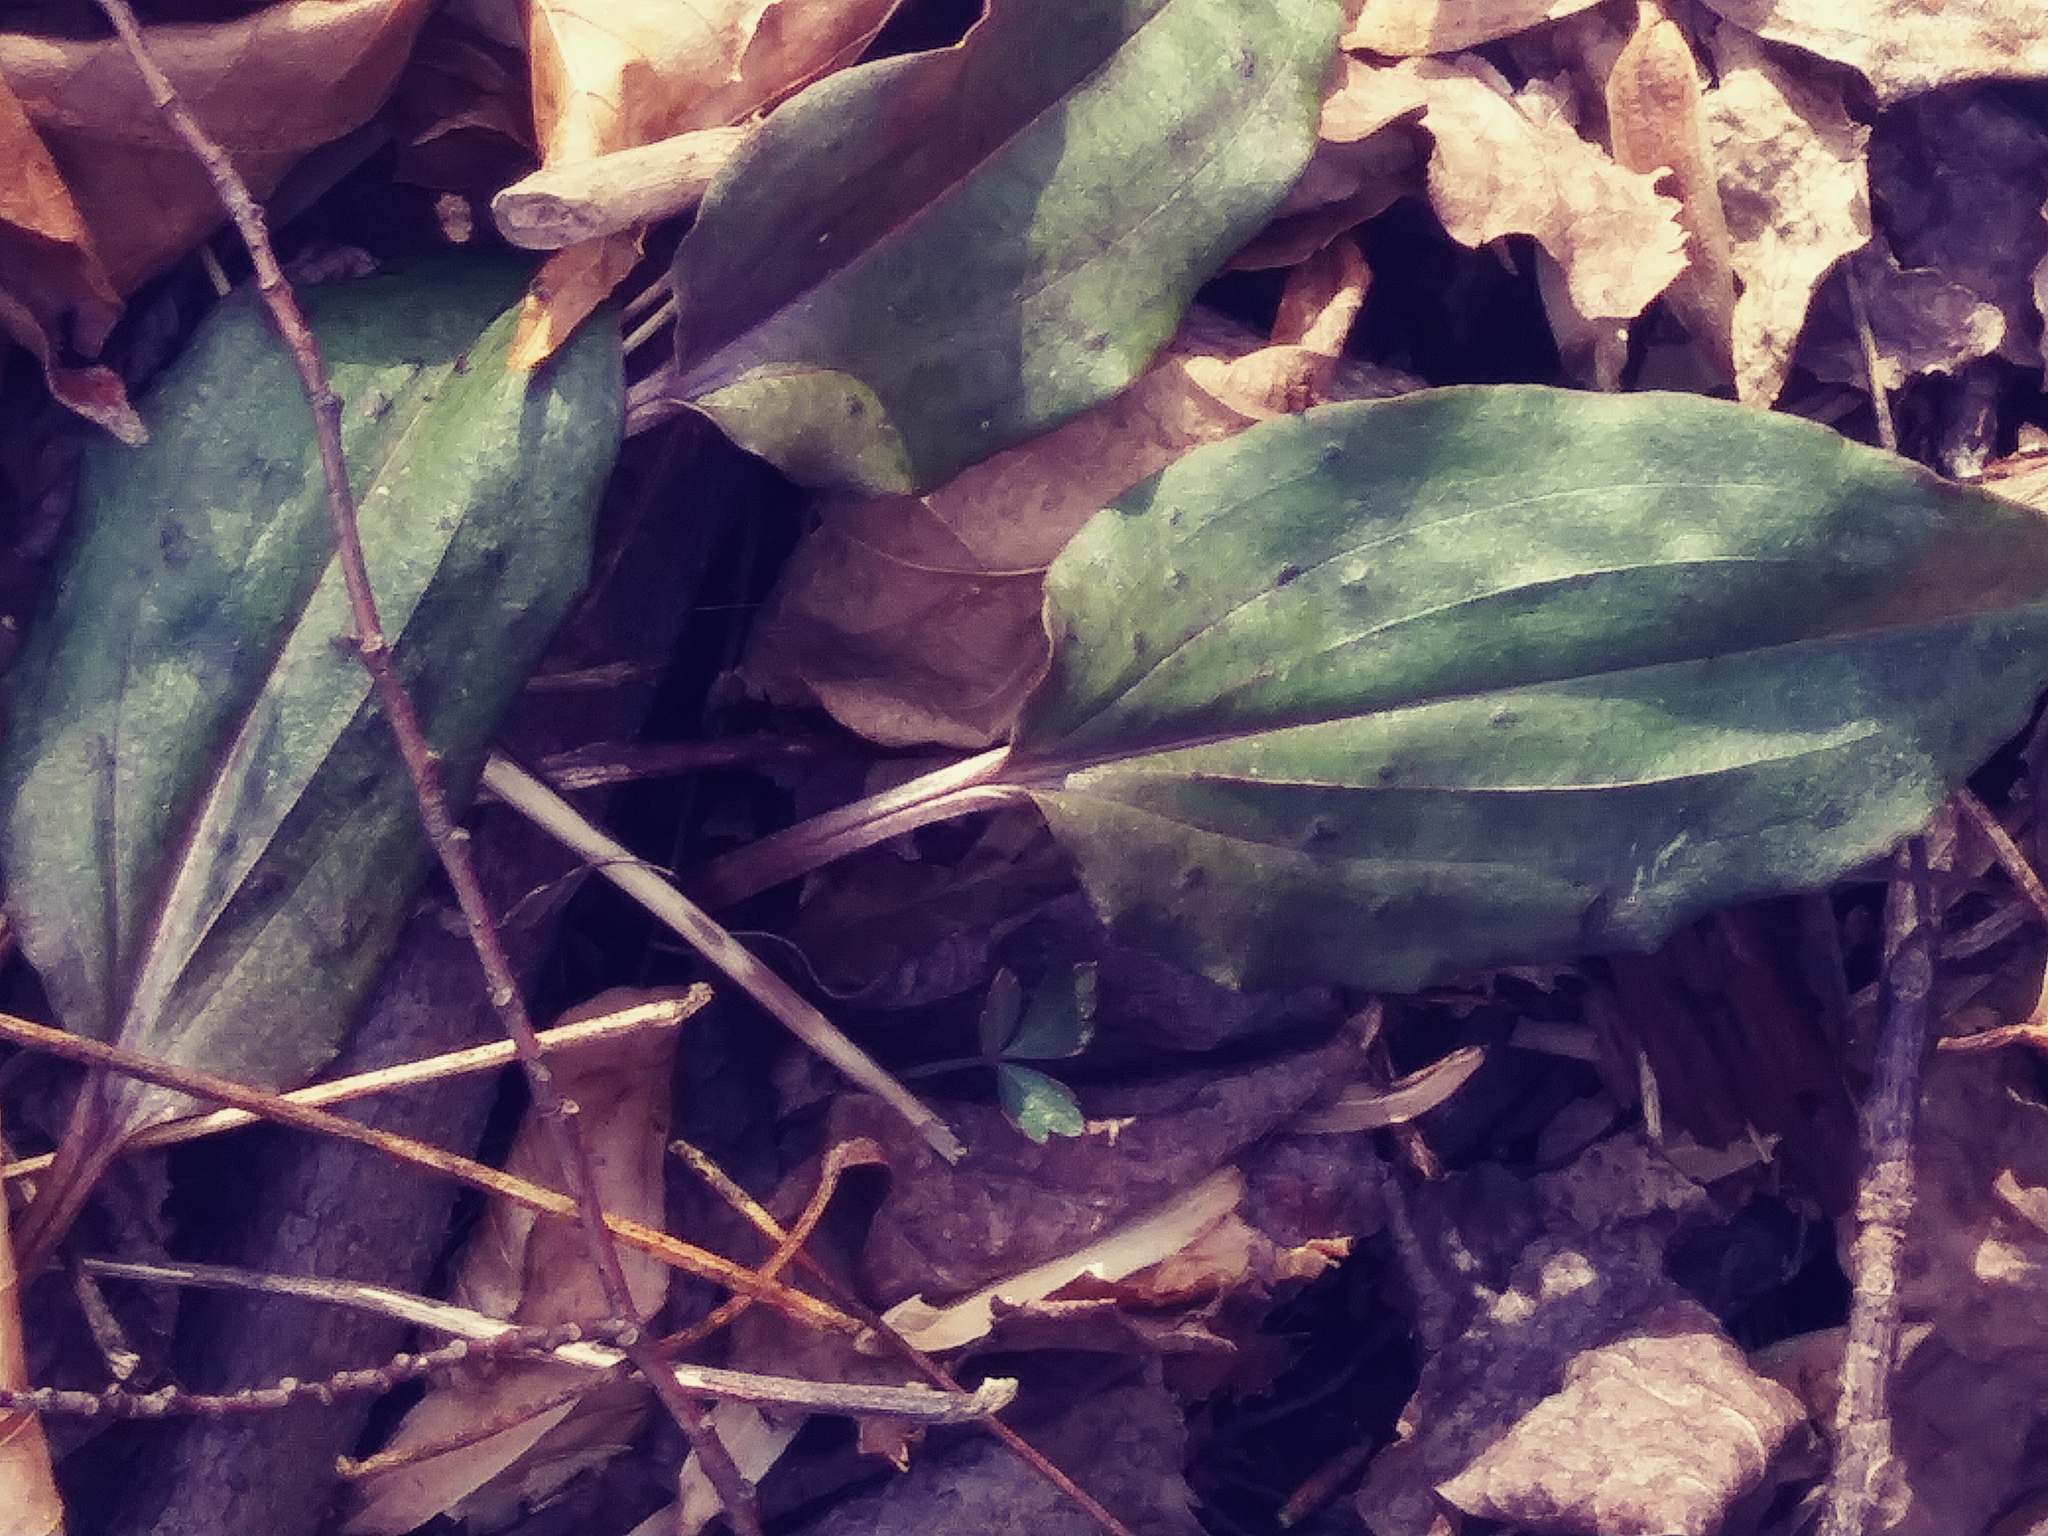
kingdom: Plantae
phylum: Tracheophyta
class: Liliopsida
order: Asparagales
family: Orchidaceae
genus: Tipularia
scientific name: Tipularia discolor
